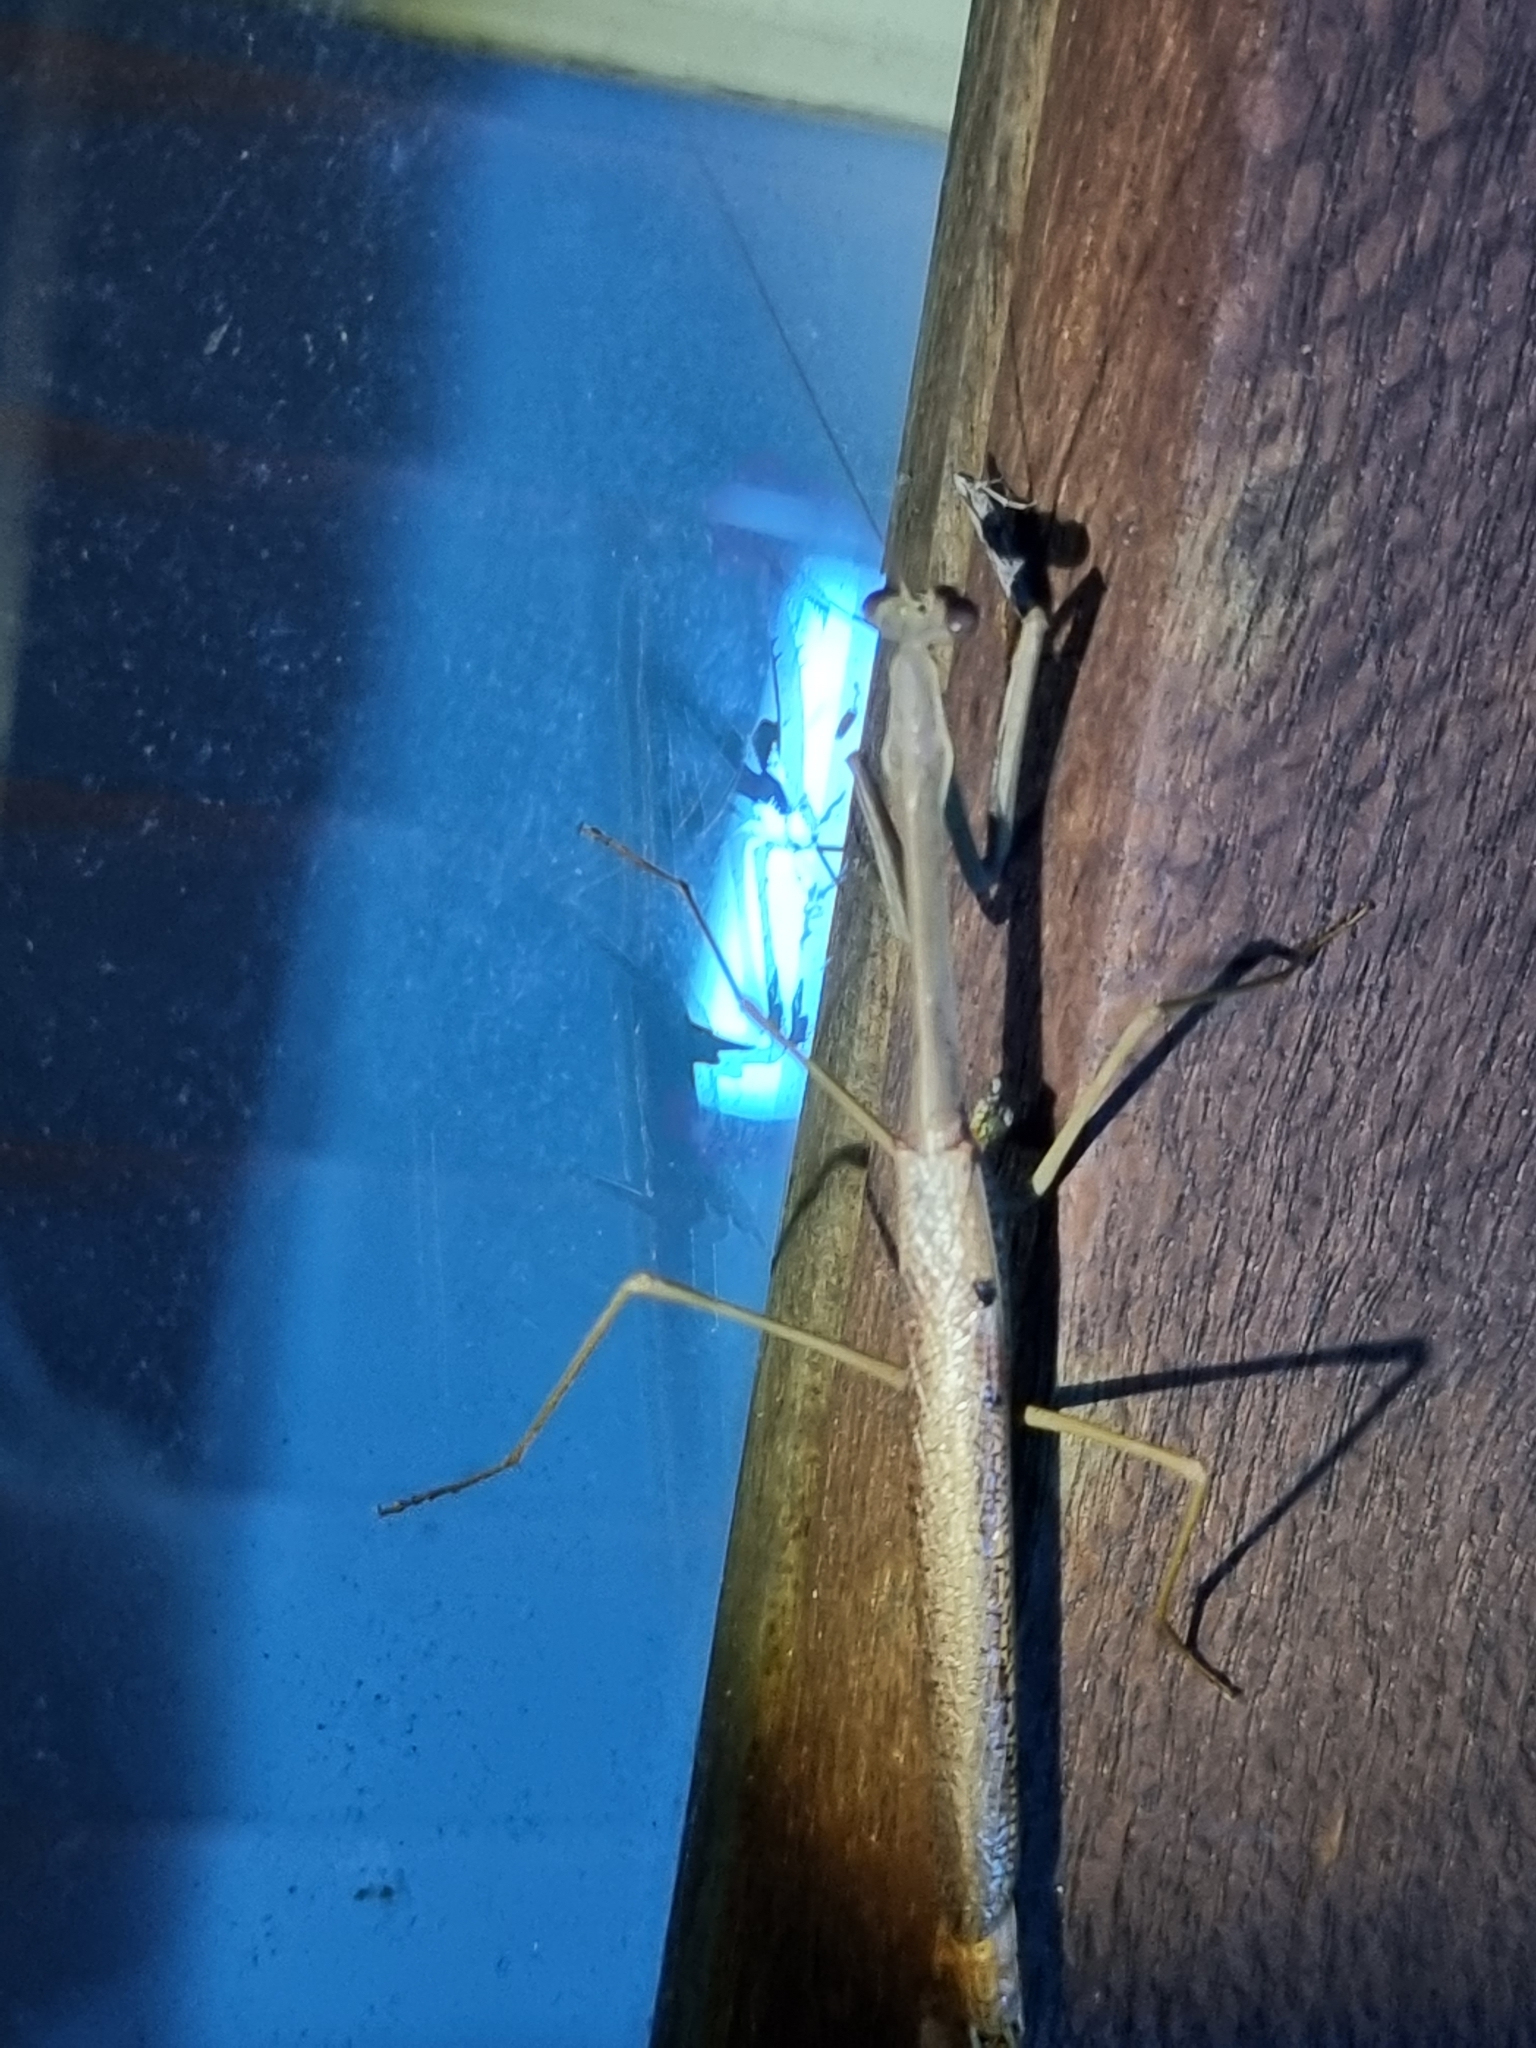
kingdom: Animalia
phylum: Arthropoda
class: Insecta
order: Mantodea
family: Mantidae
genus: Archimantis
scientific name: Archimantis latistyla
